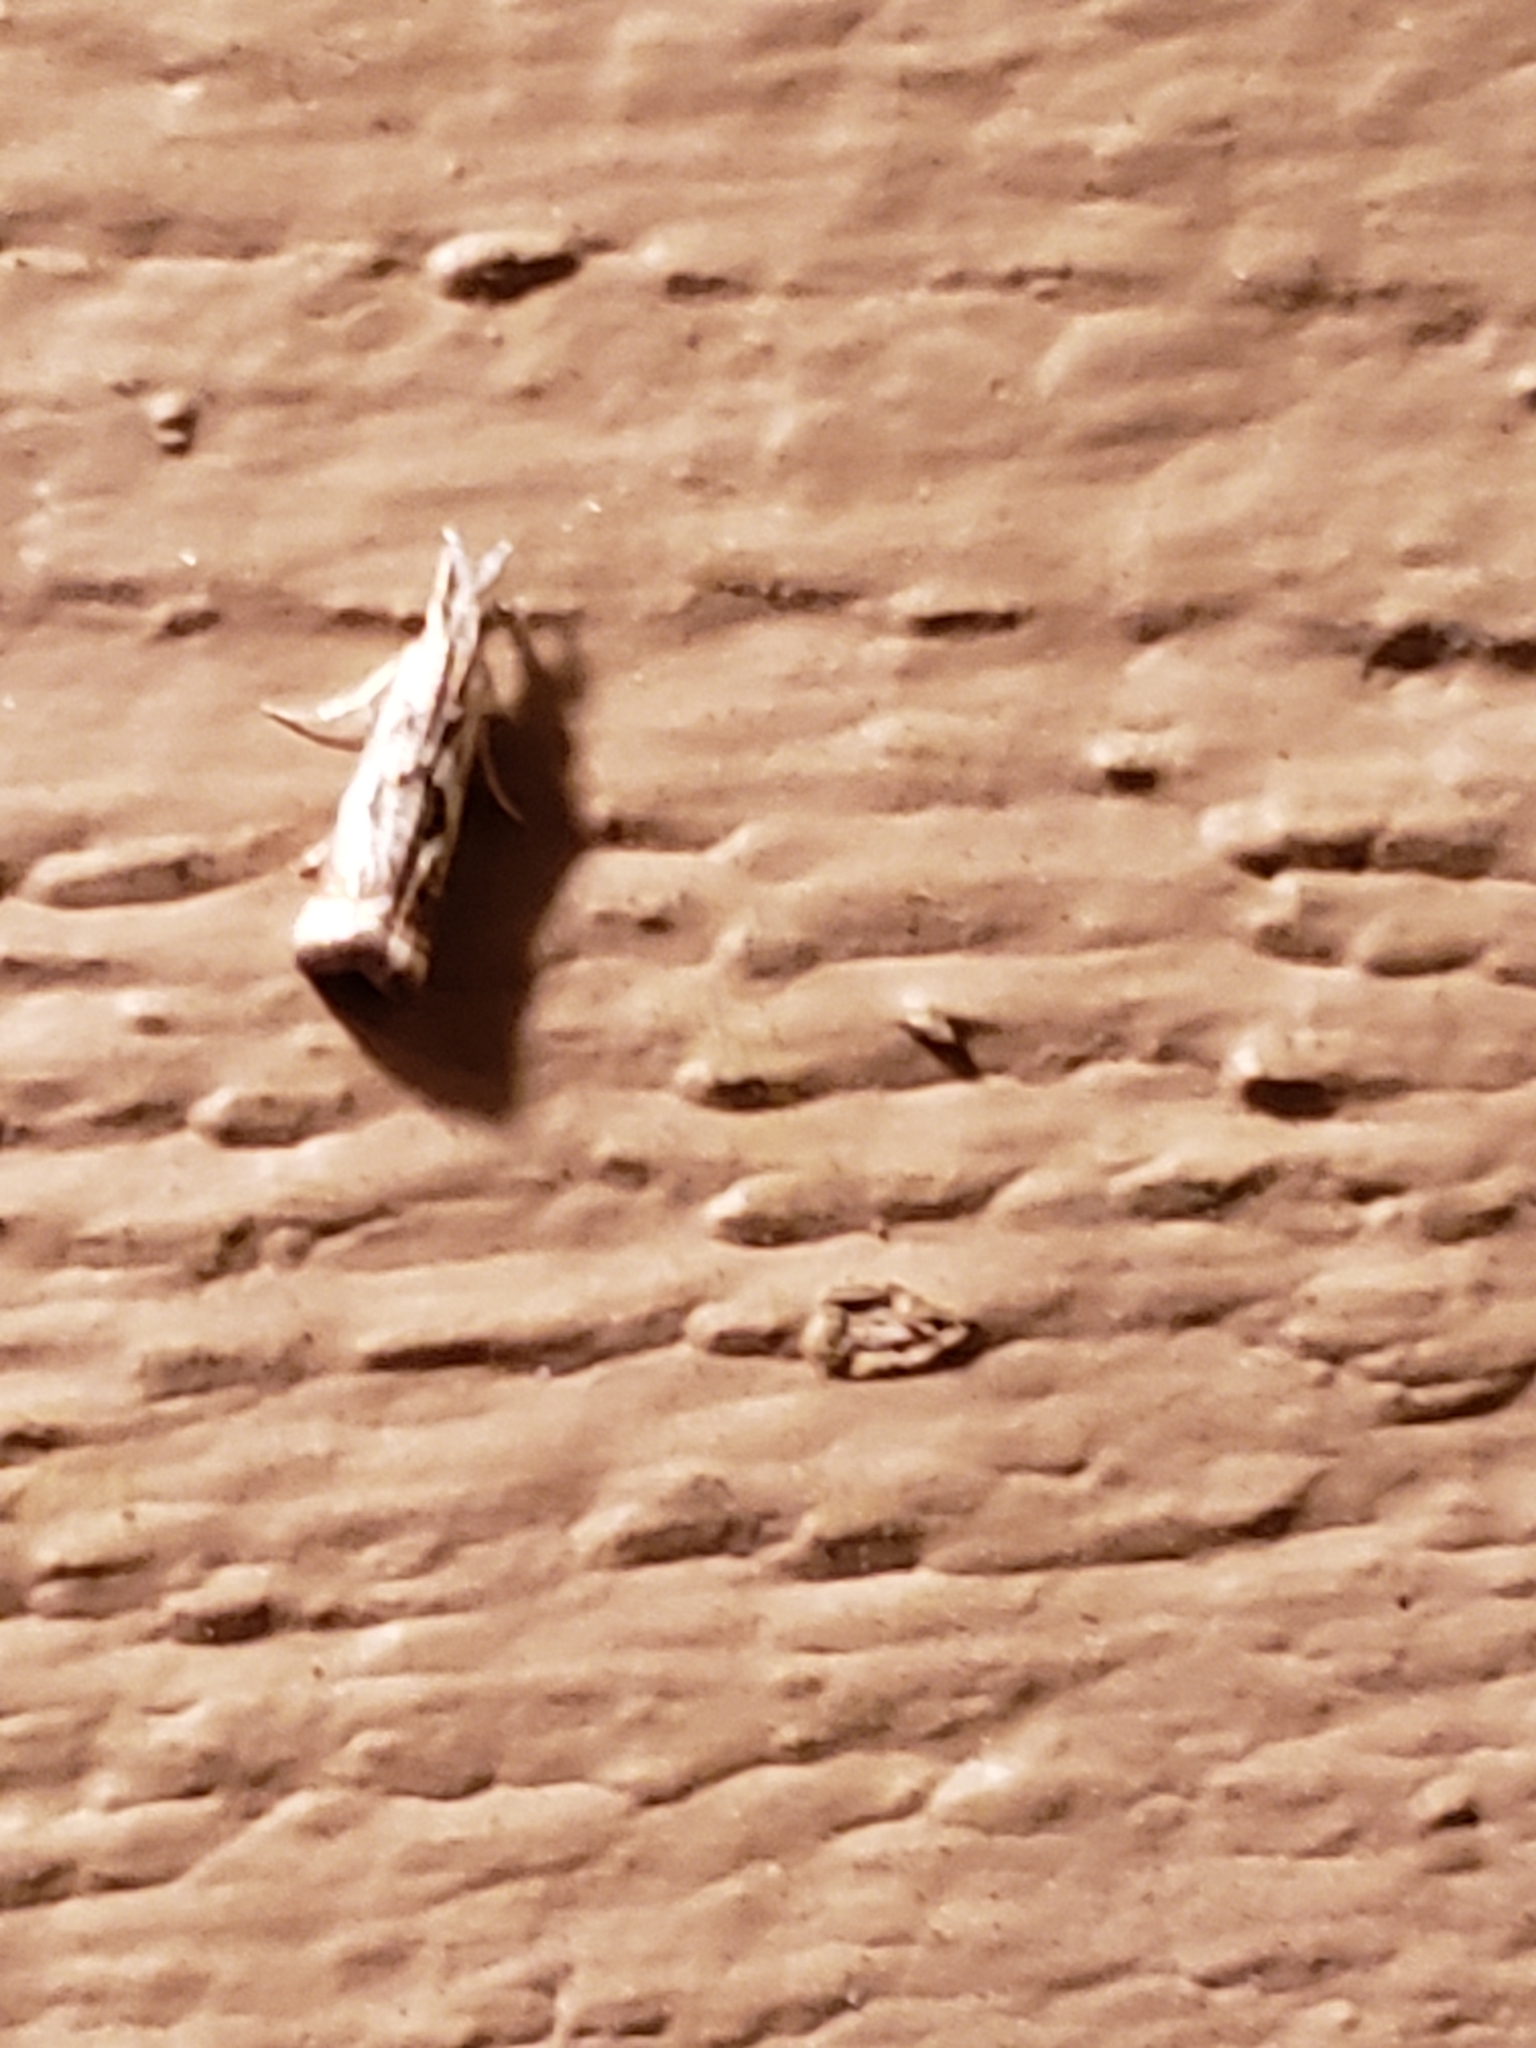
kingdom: Animalia
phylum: Arthropoda
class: Insecta
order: Lepidoptera
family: Crambidae
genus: Microcrambus
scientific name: Microcrambus elegans
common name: Elegant grass-veneer
